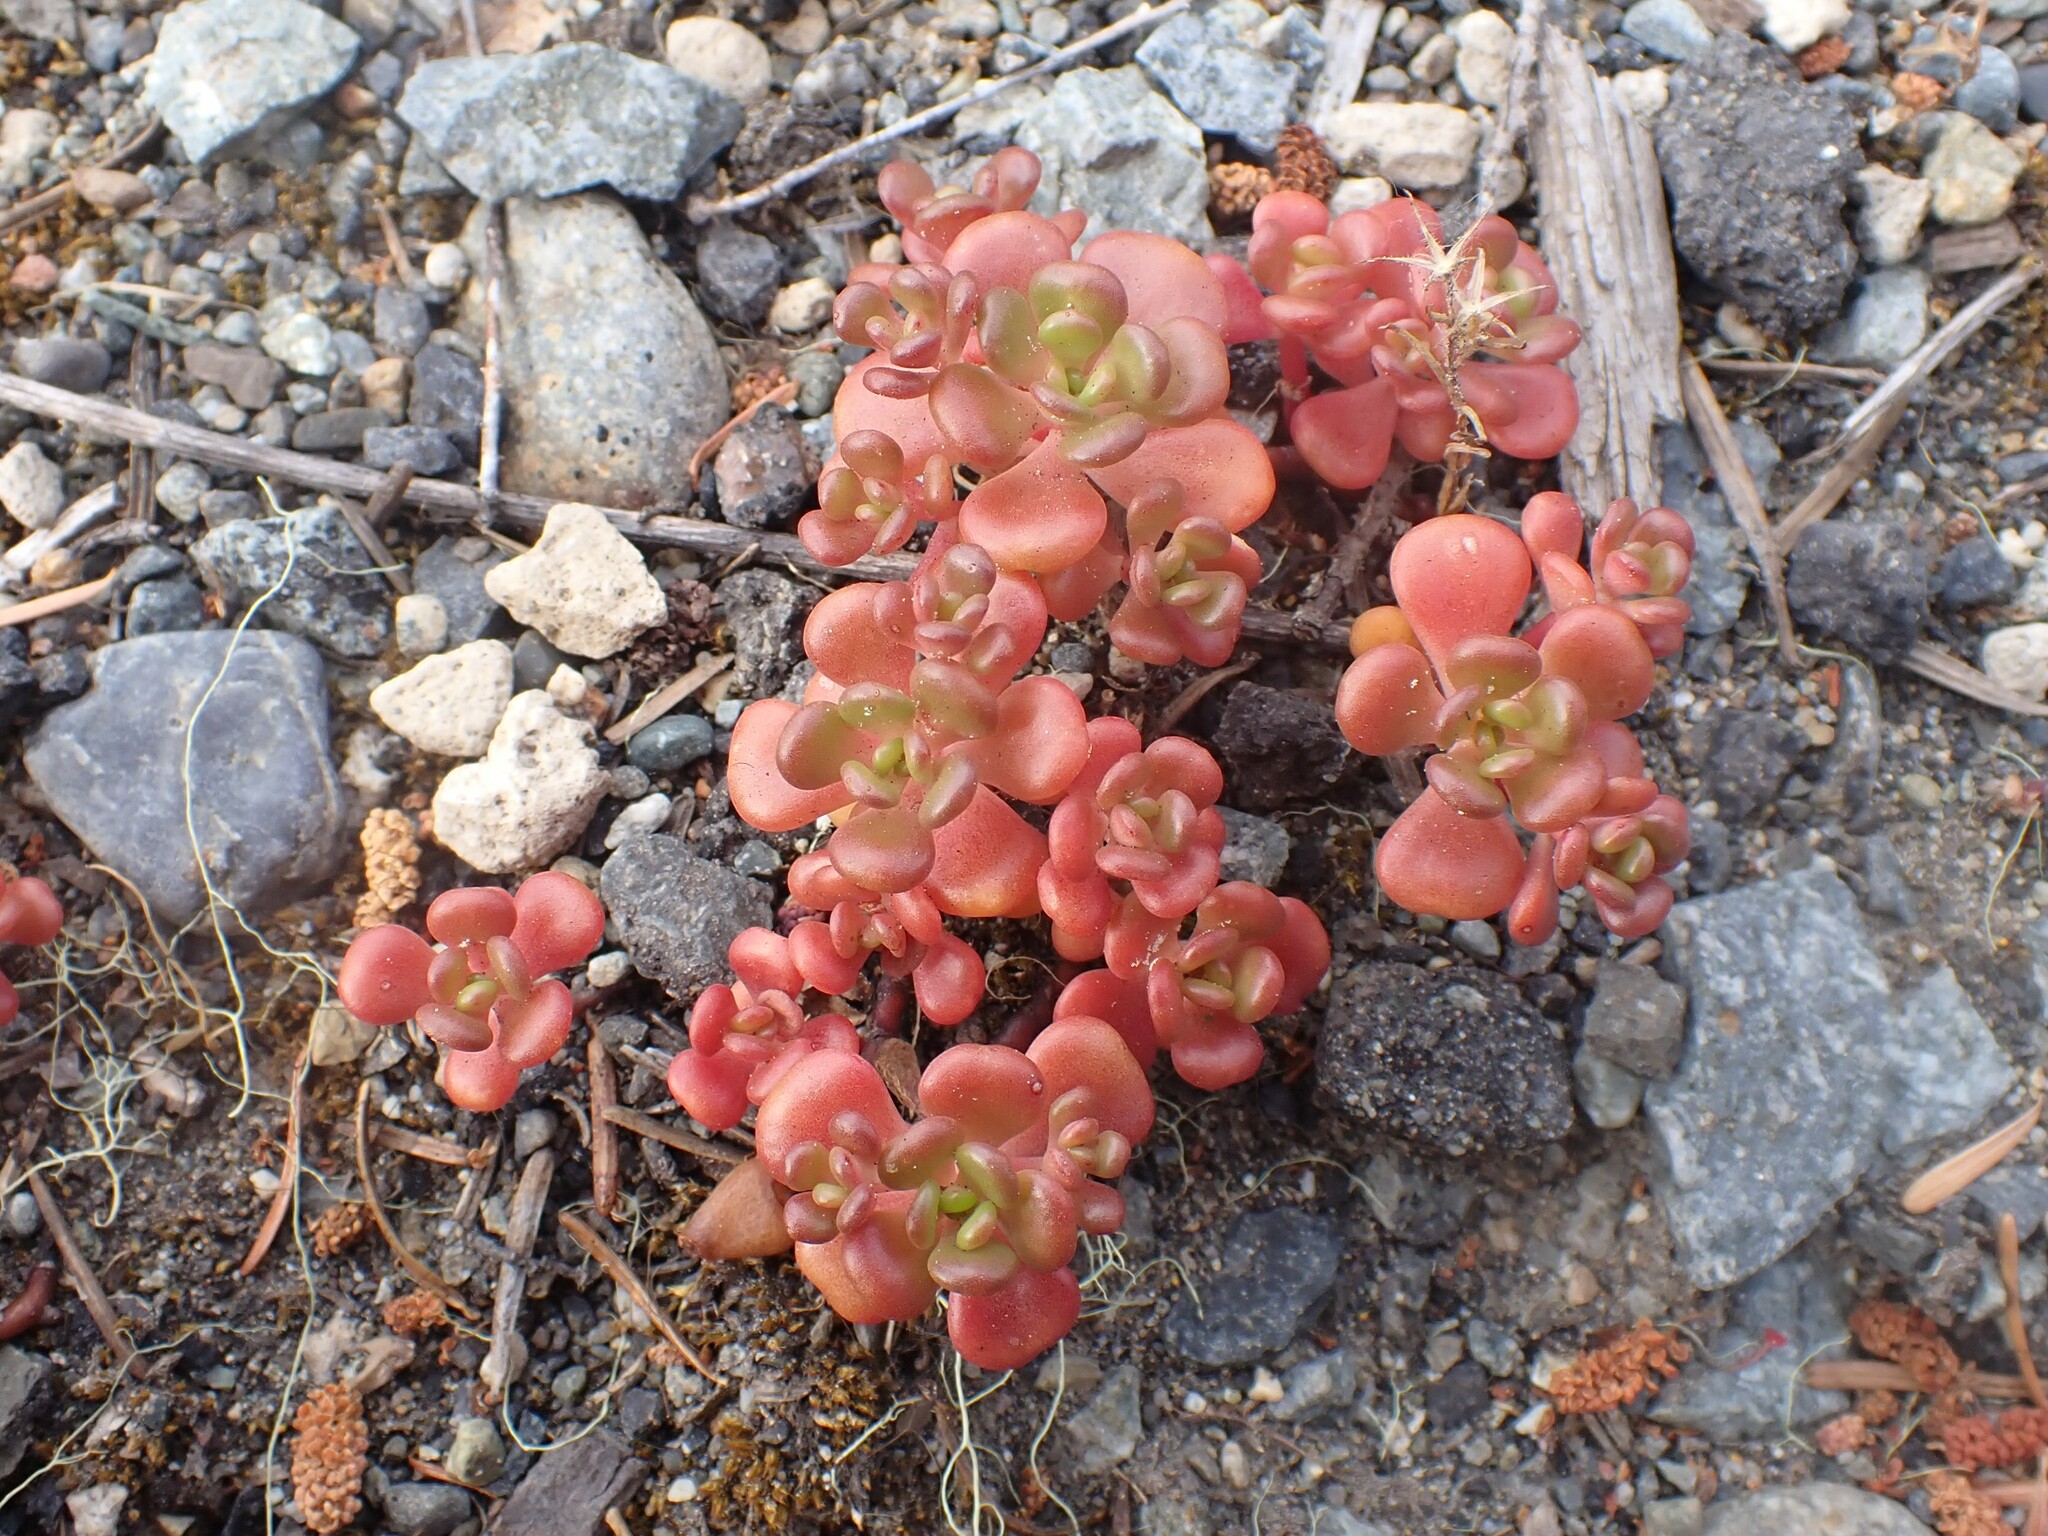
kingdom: Plantae
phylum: Tracheophyta
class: Magnoliopsida
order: Saxifragales
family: Crassulaceae
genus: Sedum
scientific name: Sedum oreganum
